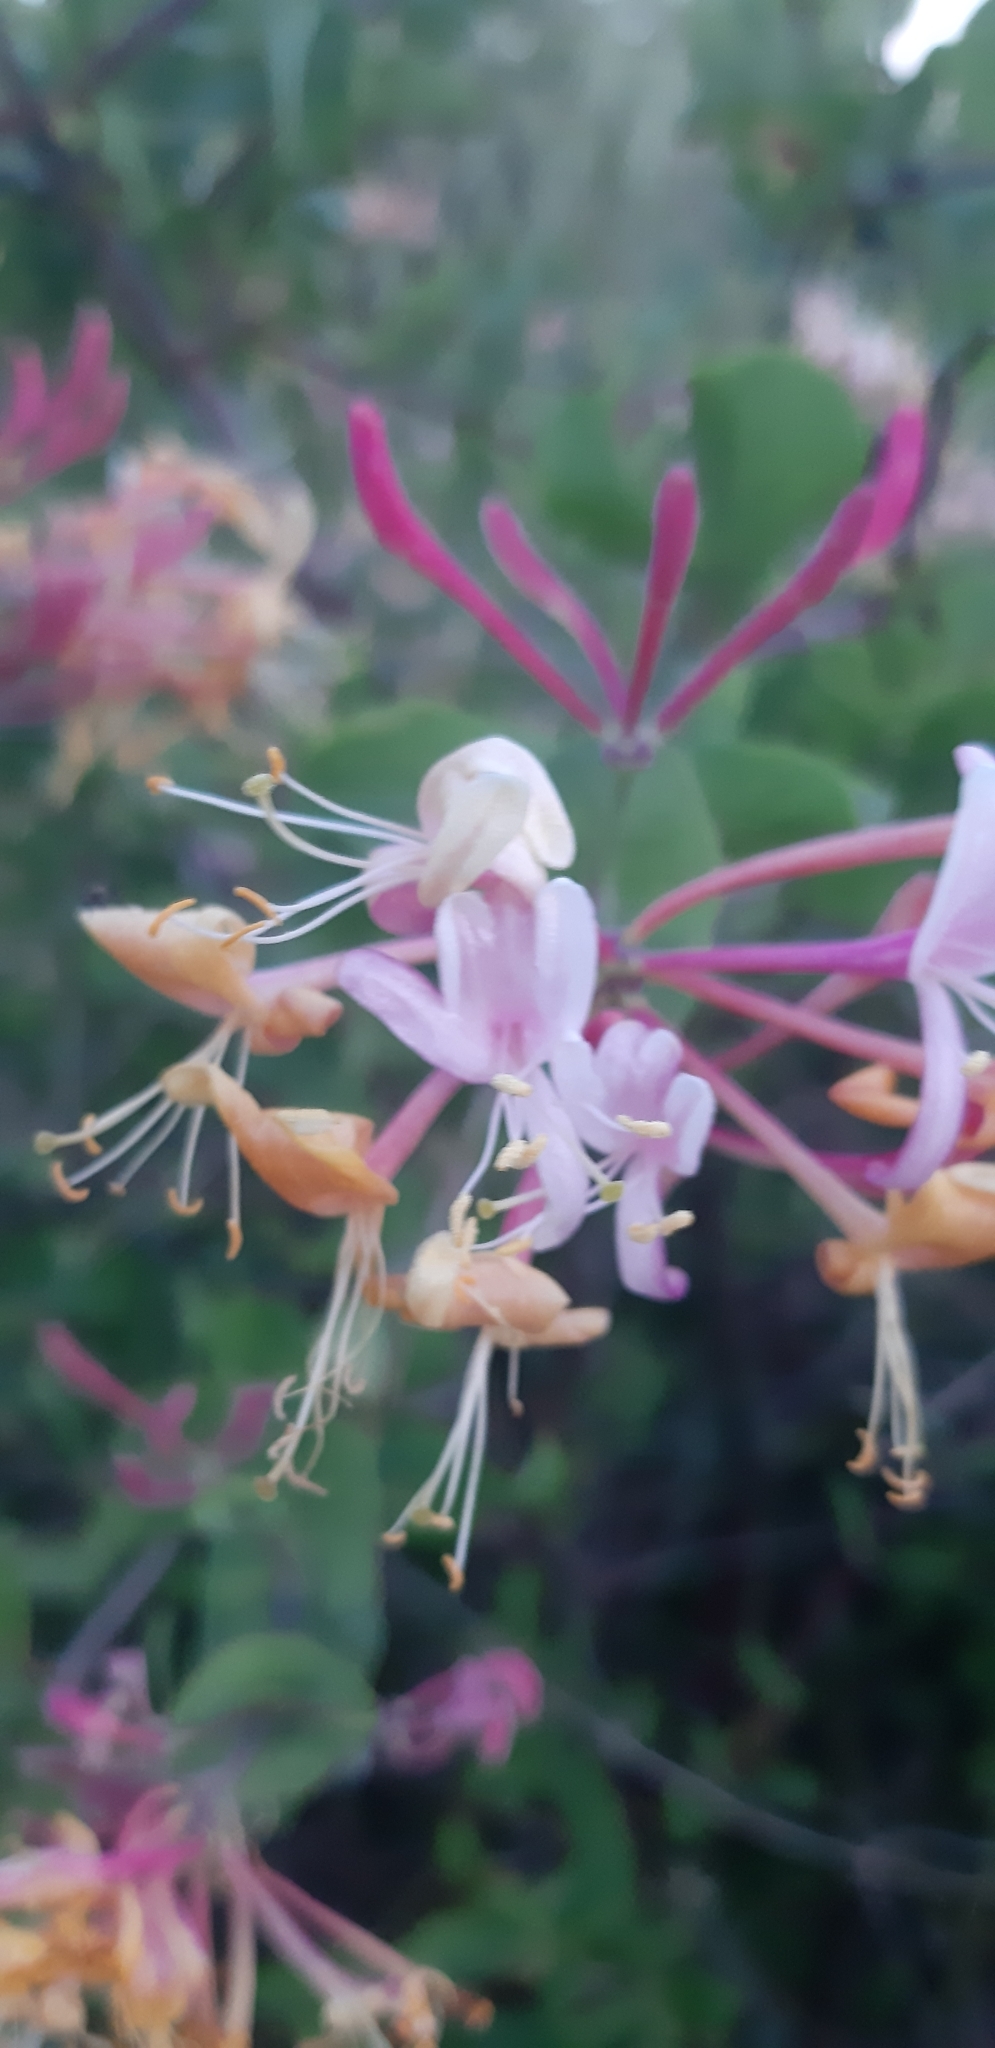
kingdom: Plantae
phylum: Tracheophyta
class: Magnoliopsida
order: Dipsacales
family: Caprifoliaceae
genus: Lonicera
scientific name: Lonicera etrusca
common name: Etruscan honeysuckle
